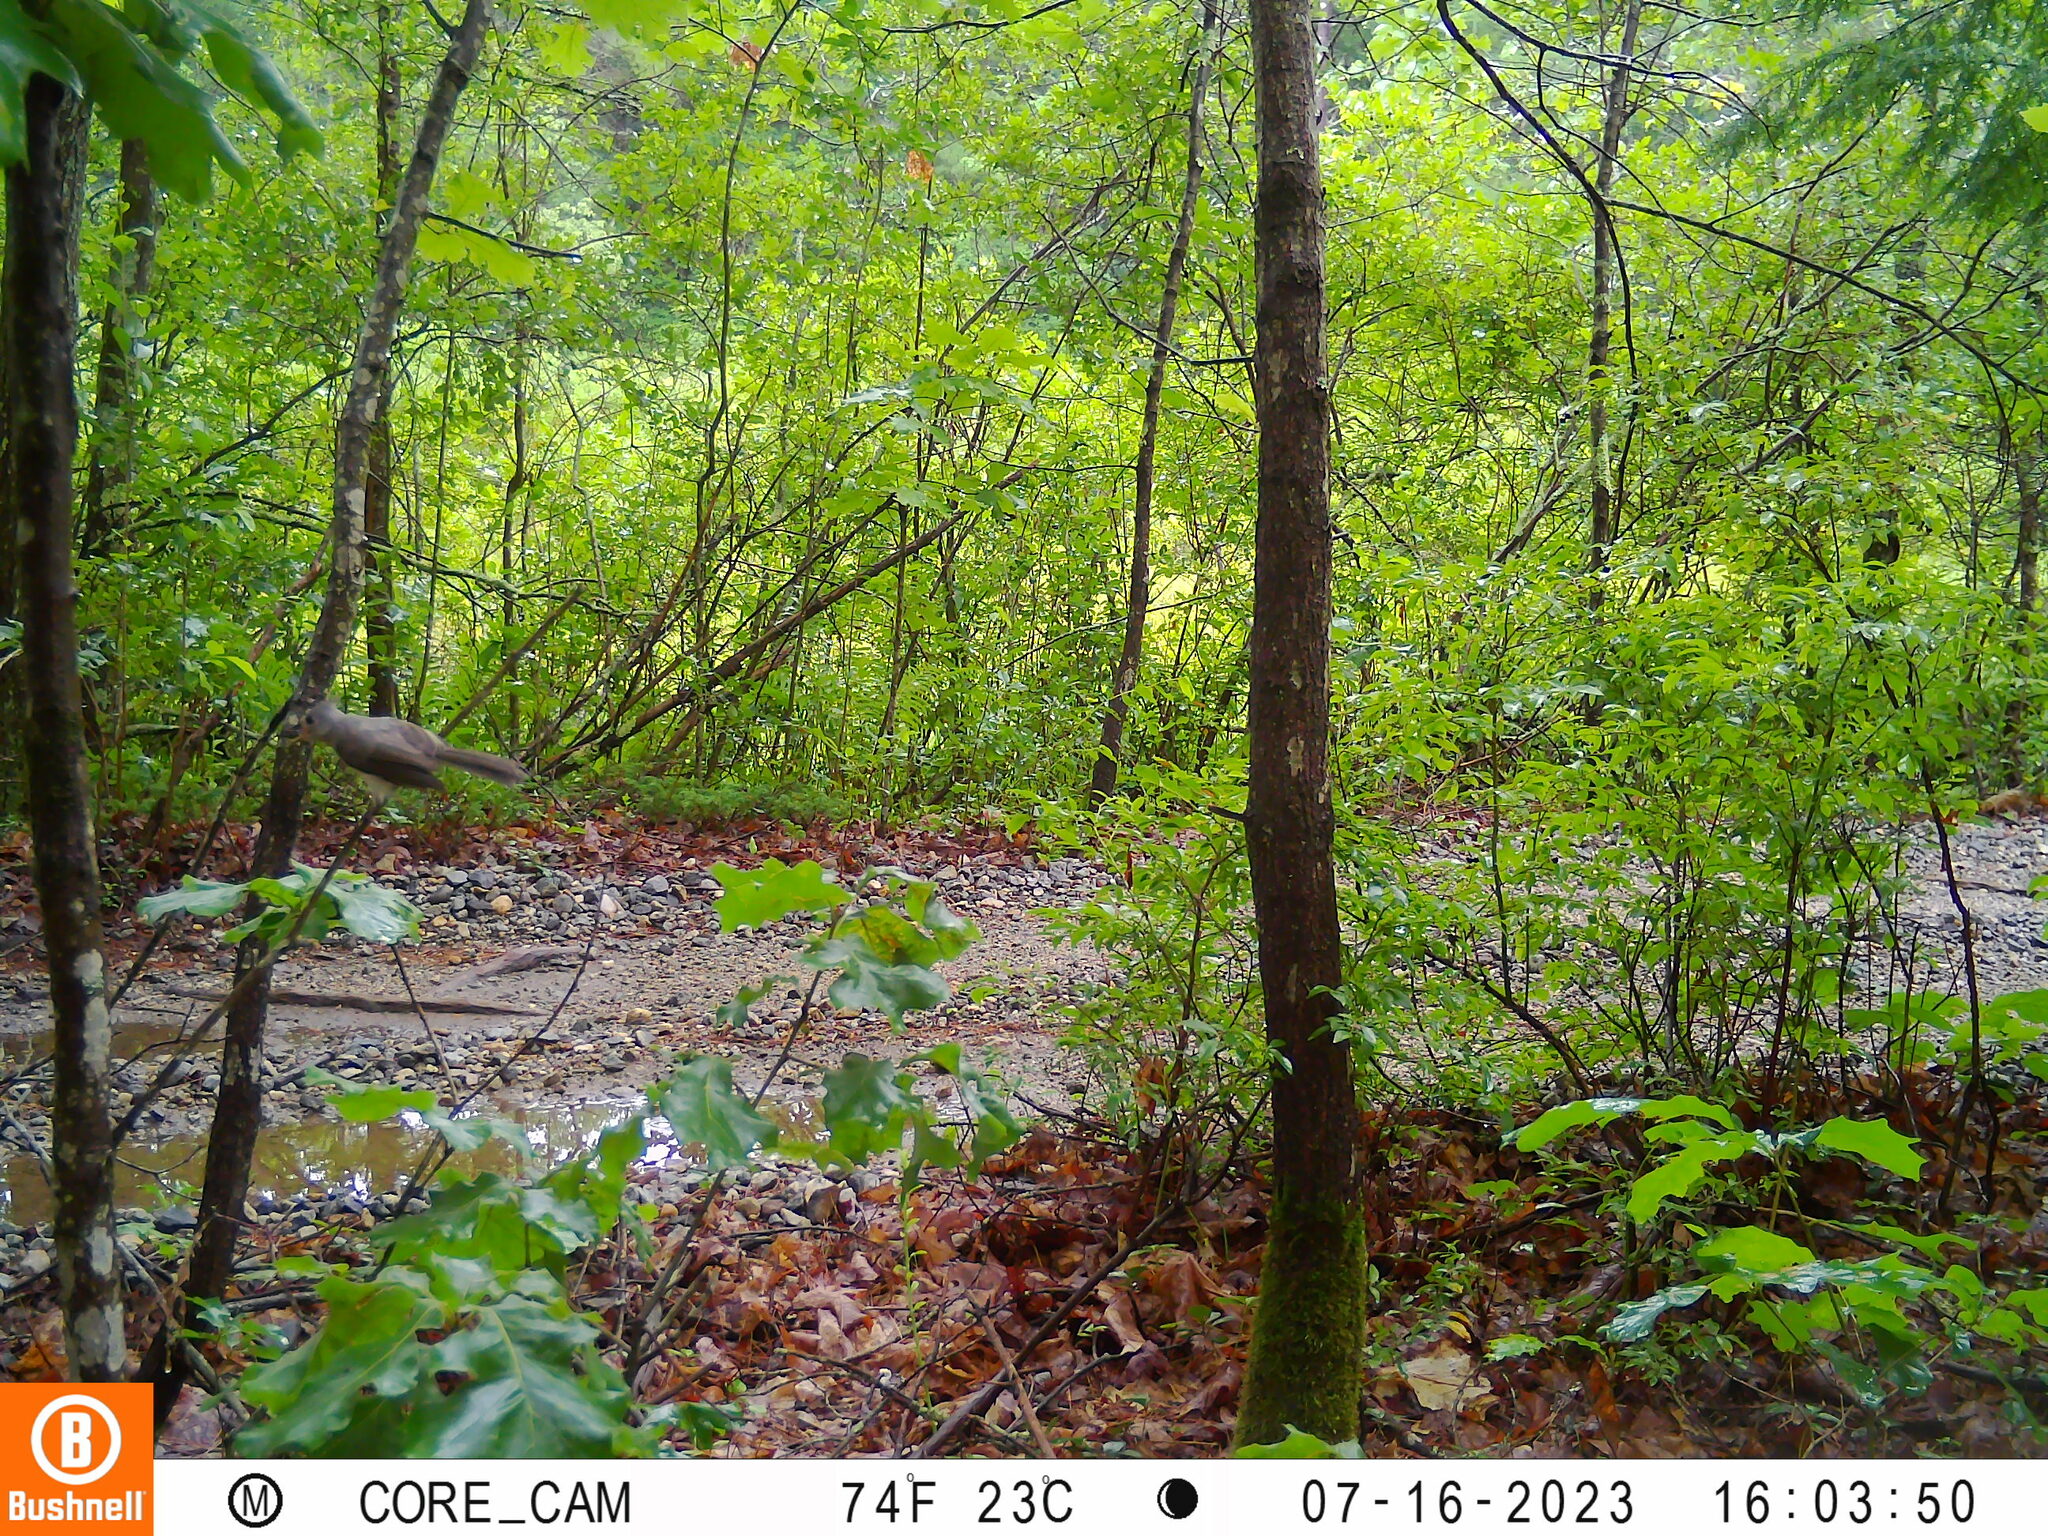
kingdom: Animalia
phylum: Chordata
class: Aves
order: Passeriformes
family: Paridae
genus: Baeolophus
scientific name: Baeolophus bicolor
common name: Tufted titmouse
